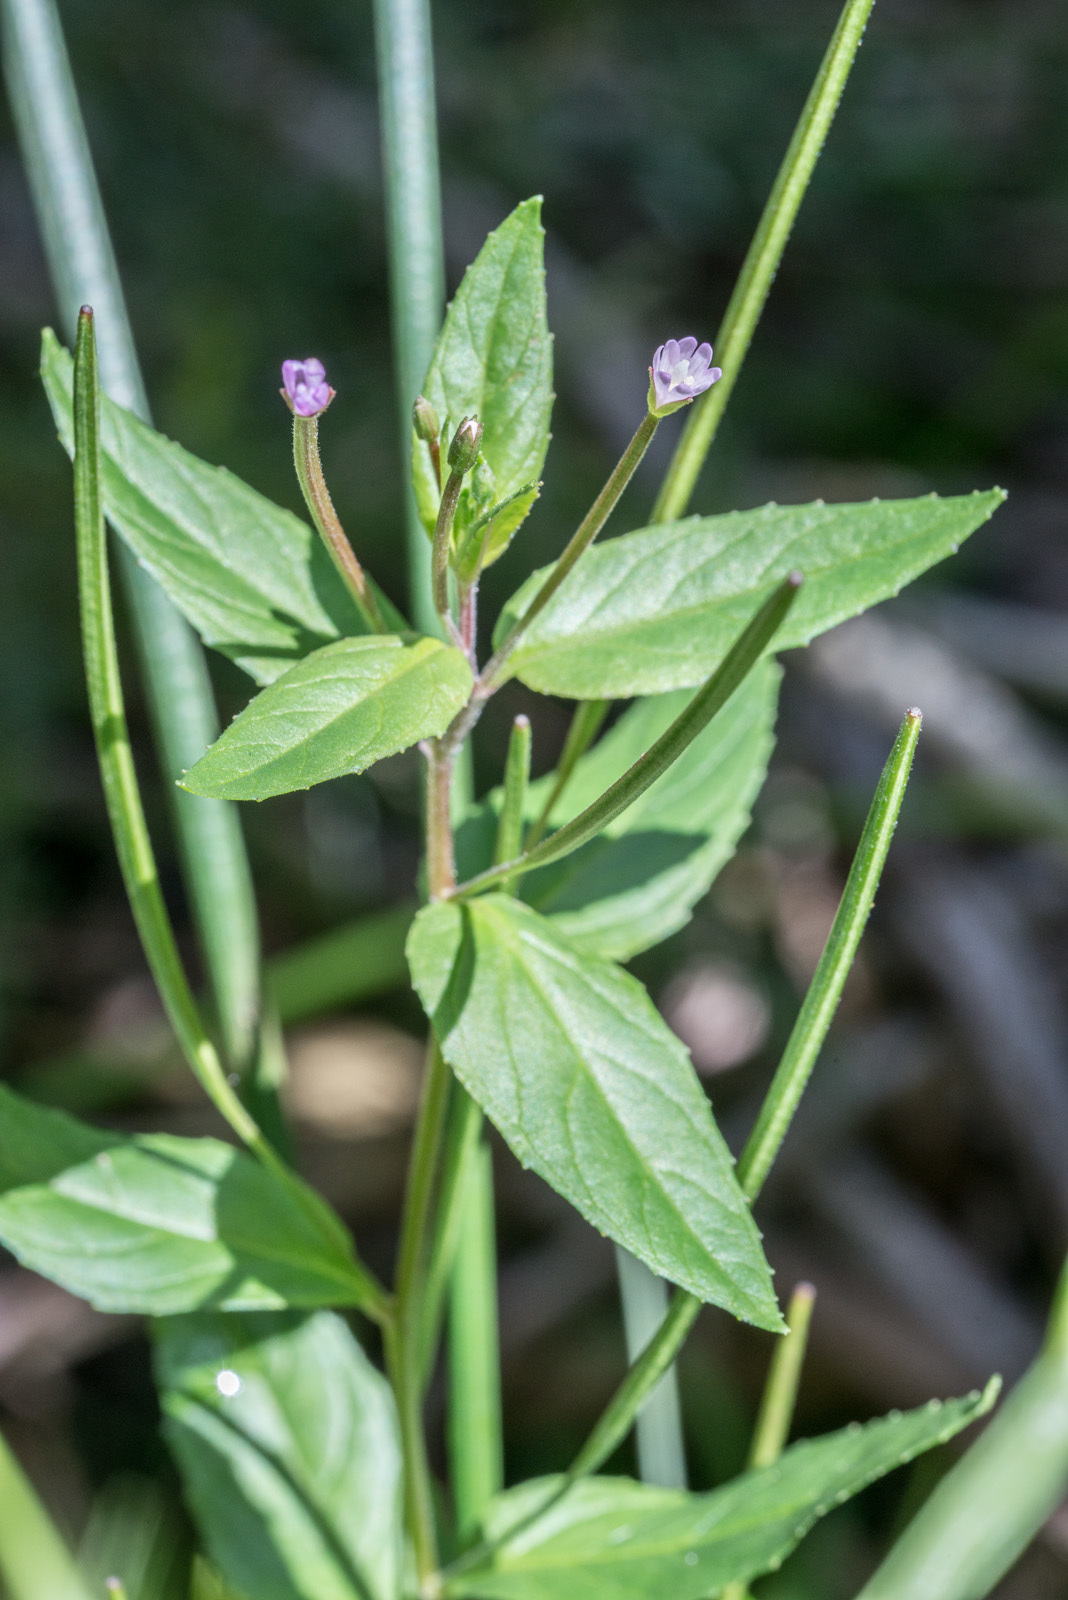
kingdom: Plantae
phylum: Tracheophyta
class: Magnoliopsida
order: Myrtales
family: Onagraceae
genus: Epilobium
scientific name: Epilobium ciliatum
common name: American willowherb
